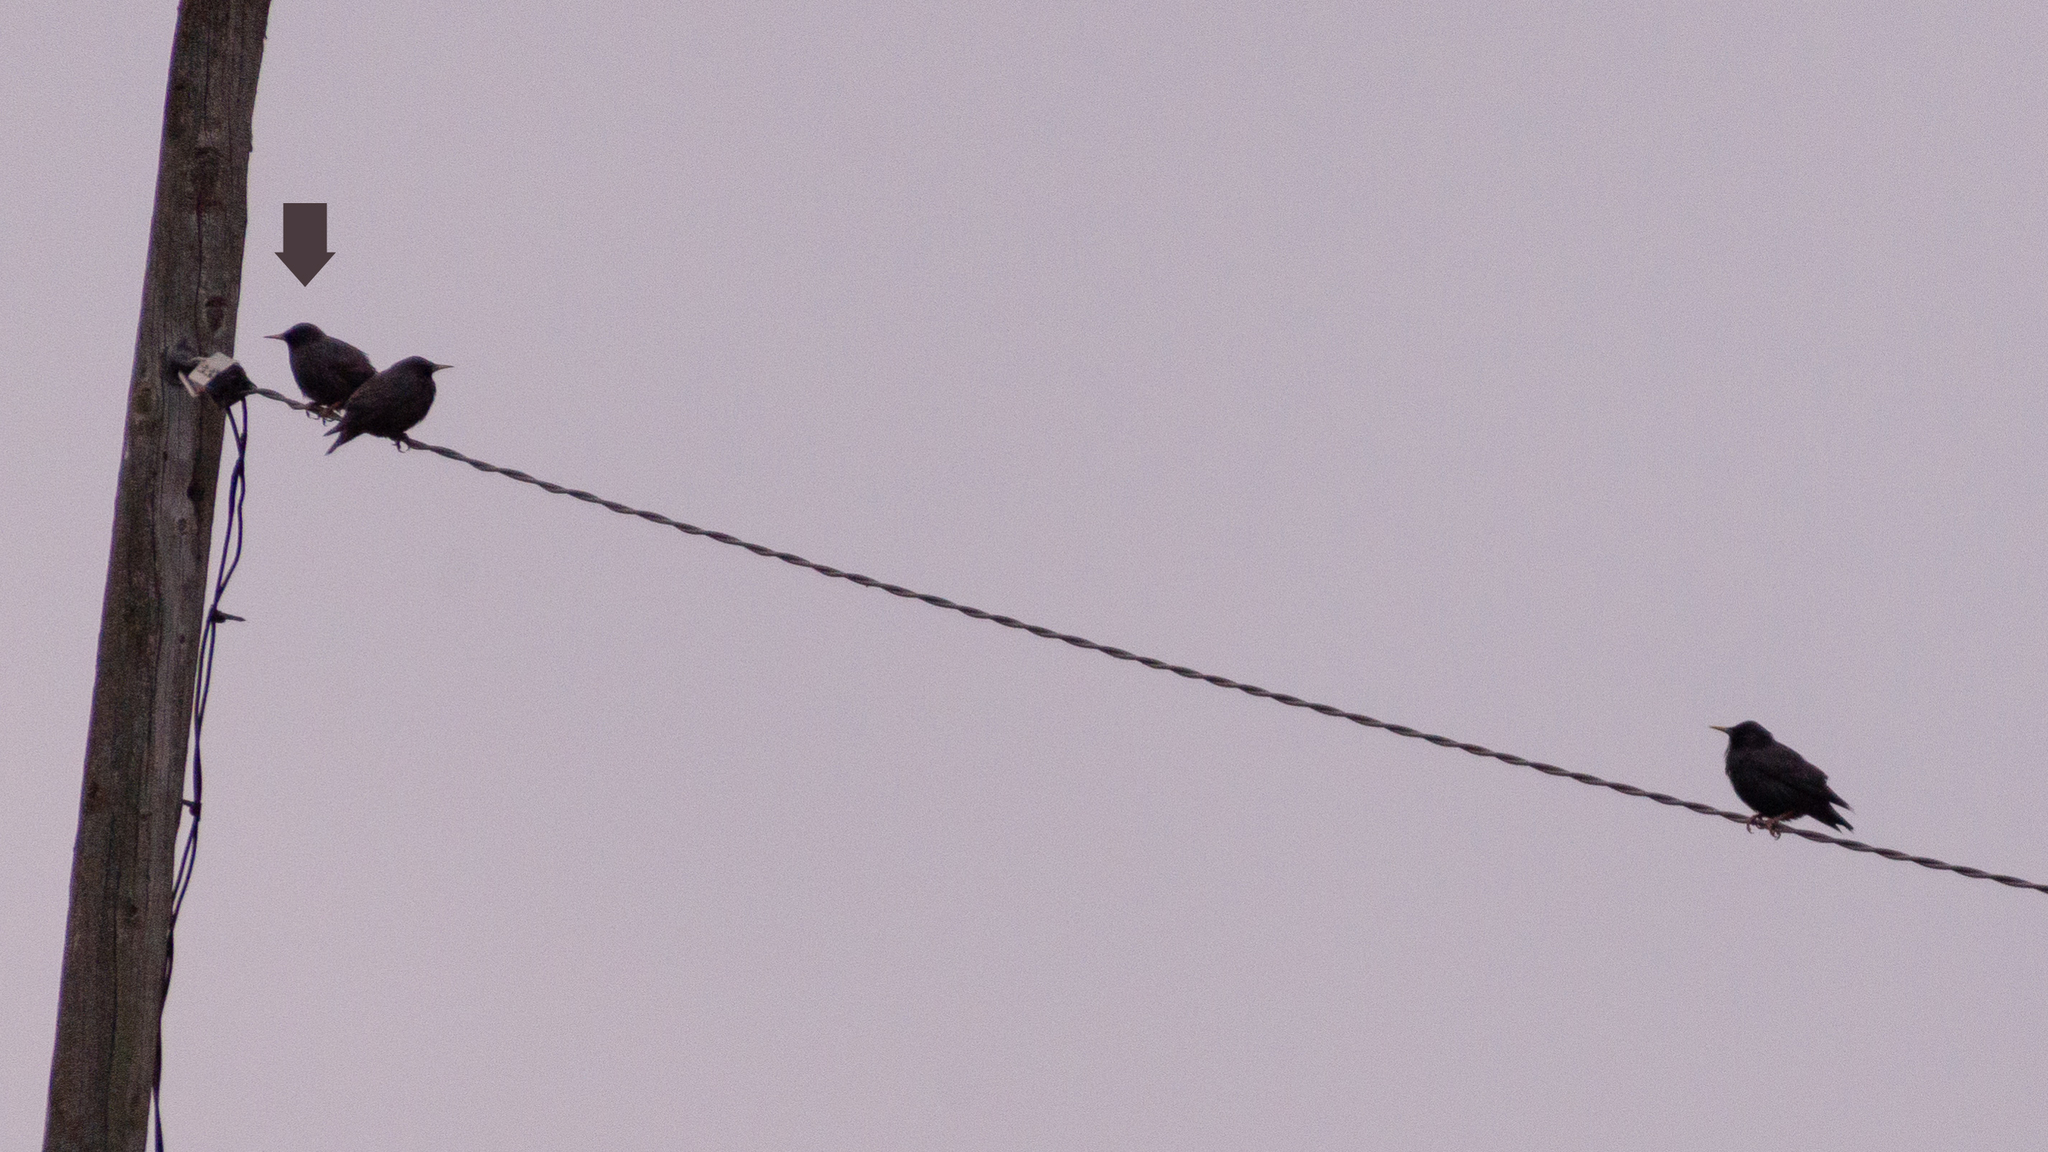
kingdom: Animalia
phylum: Chordata
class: Aves
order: Passeriformes
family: Sturnidae
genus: Sturnus
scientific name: Sturnus unicolor
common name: Spotless starling
